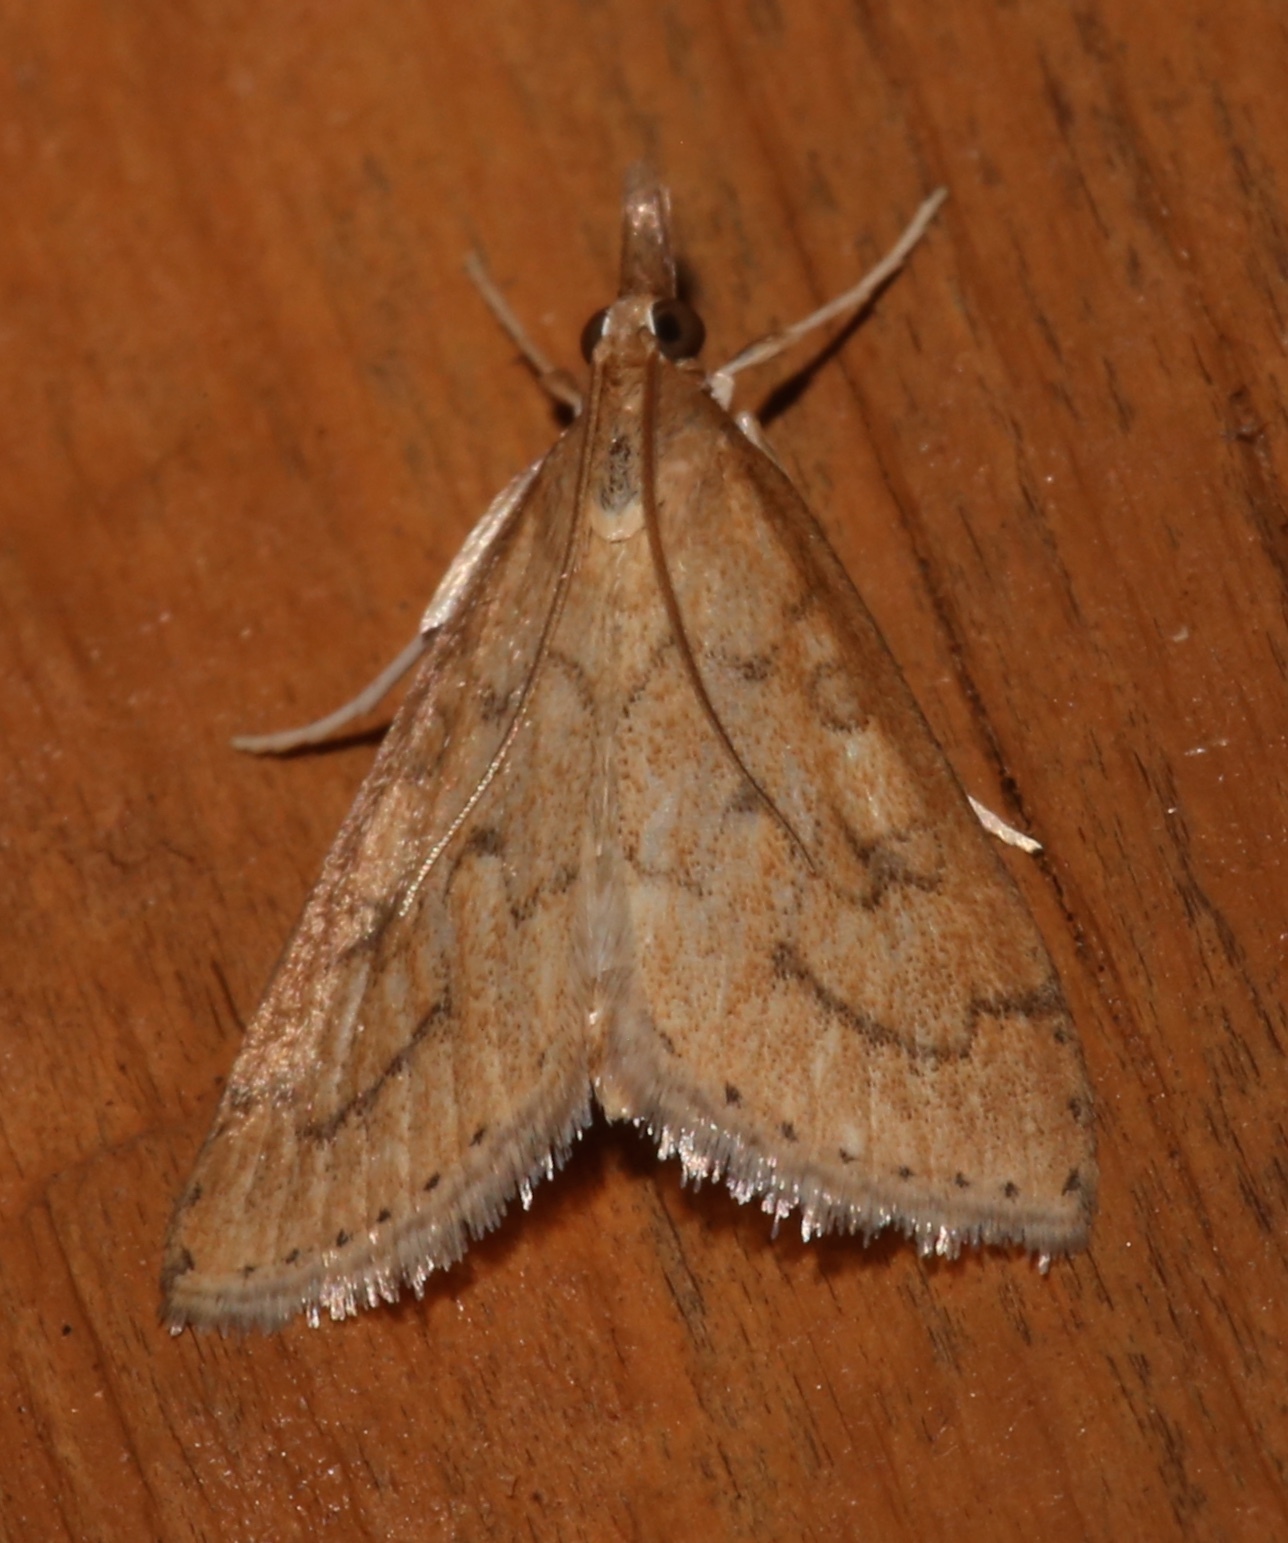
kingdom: Animalia
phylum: Arthropoda
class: Insecta
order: Lepidoptera
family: Crambidae
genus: Udea
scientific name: Udea rubigalis
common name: Celery leaftier moth
